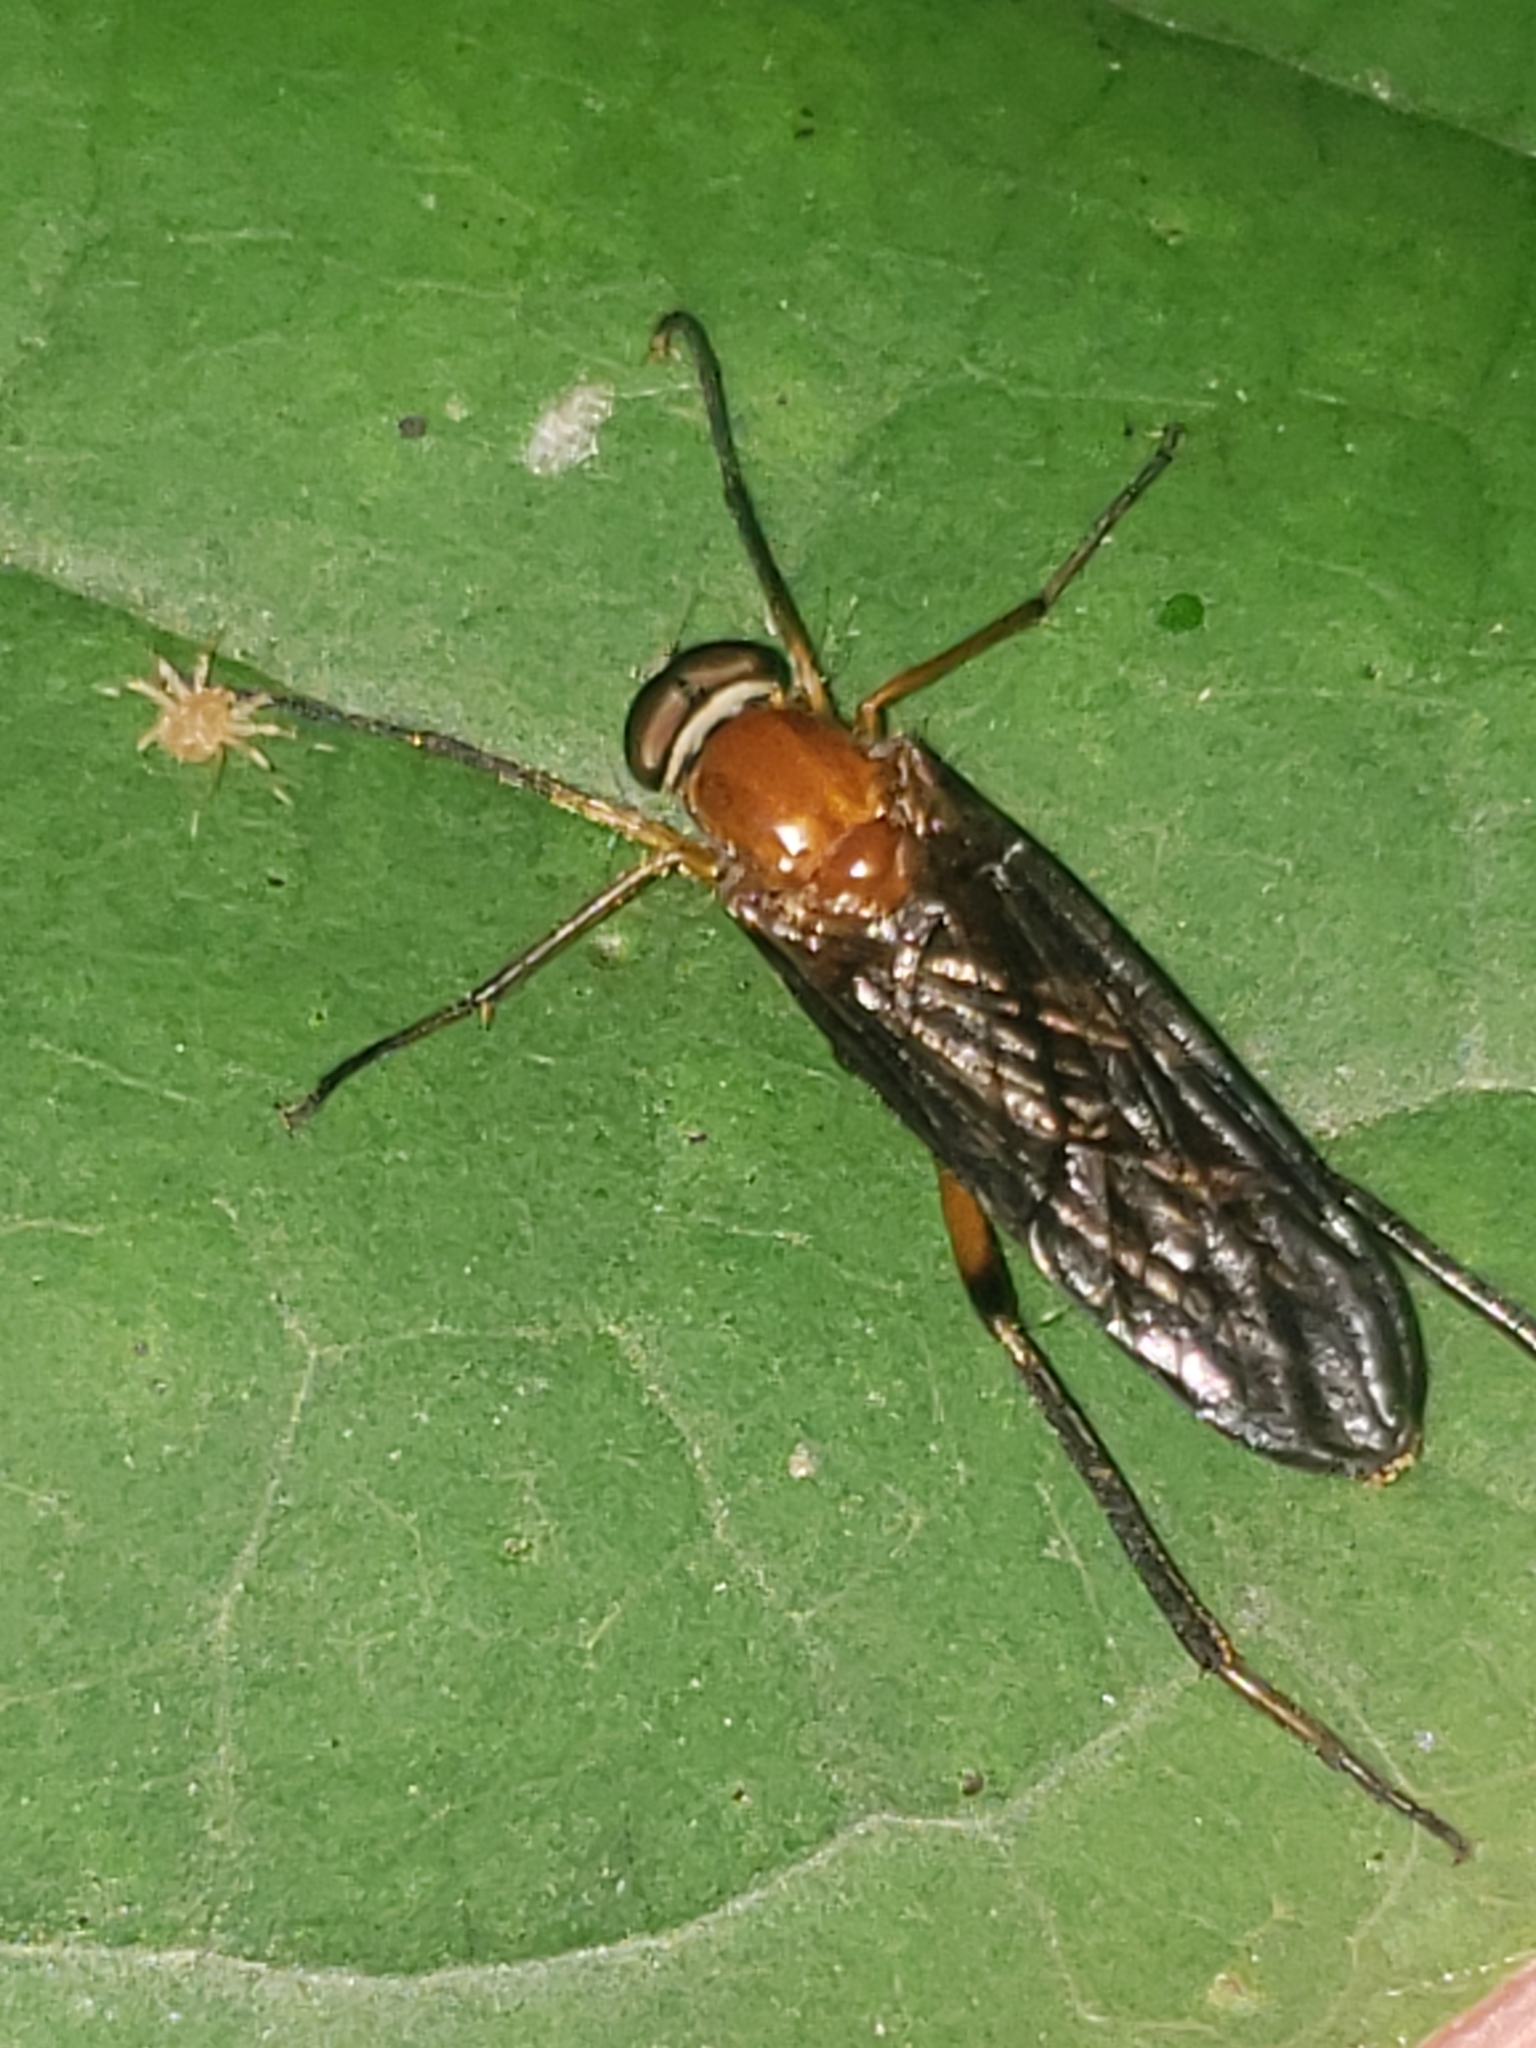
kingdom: Animalia
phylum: Arthropoda
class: Insecta
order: Diptera
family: Xylophagidae
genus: Dialysis
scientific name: Dialysis rufithorax
